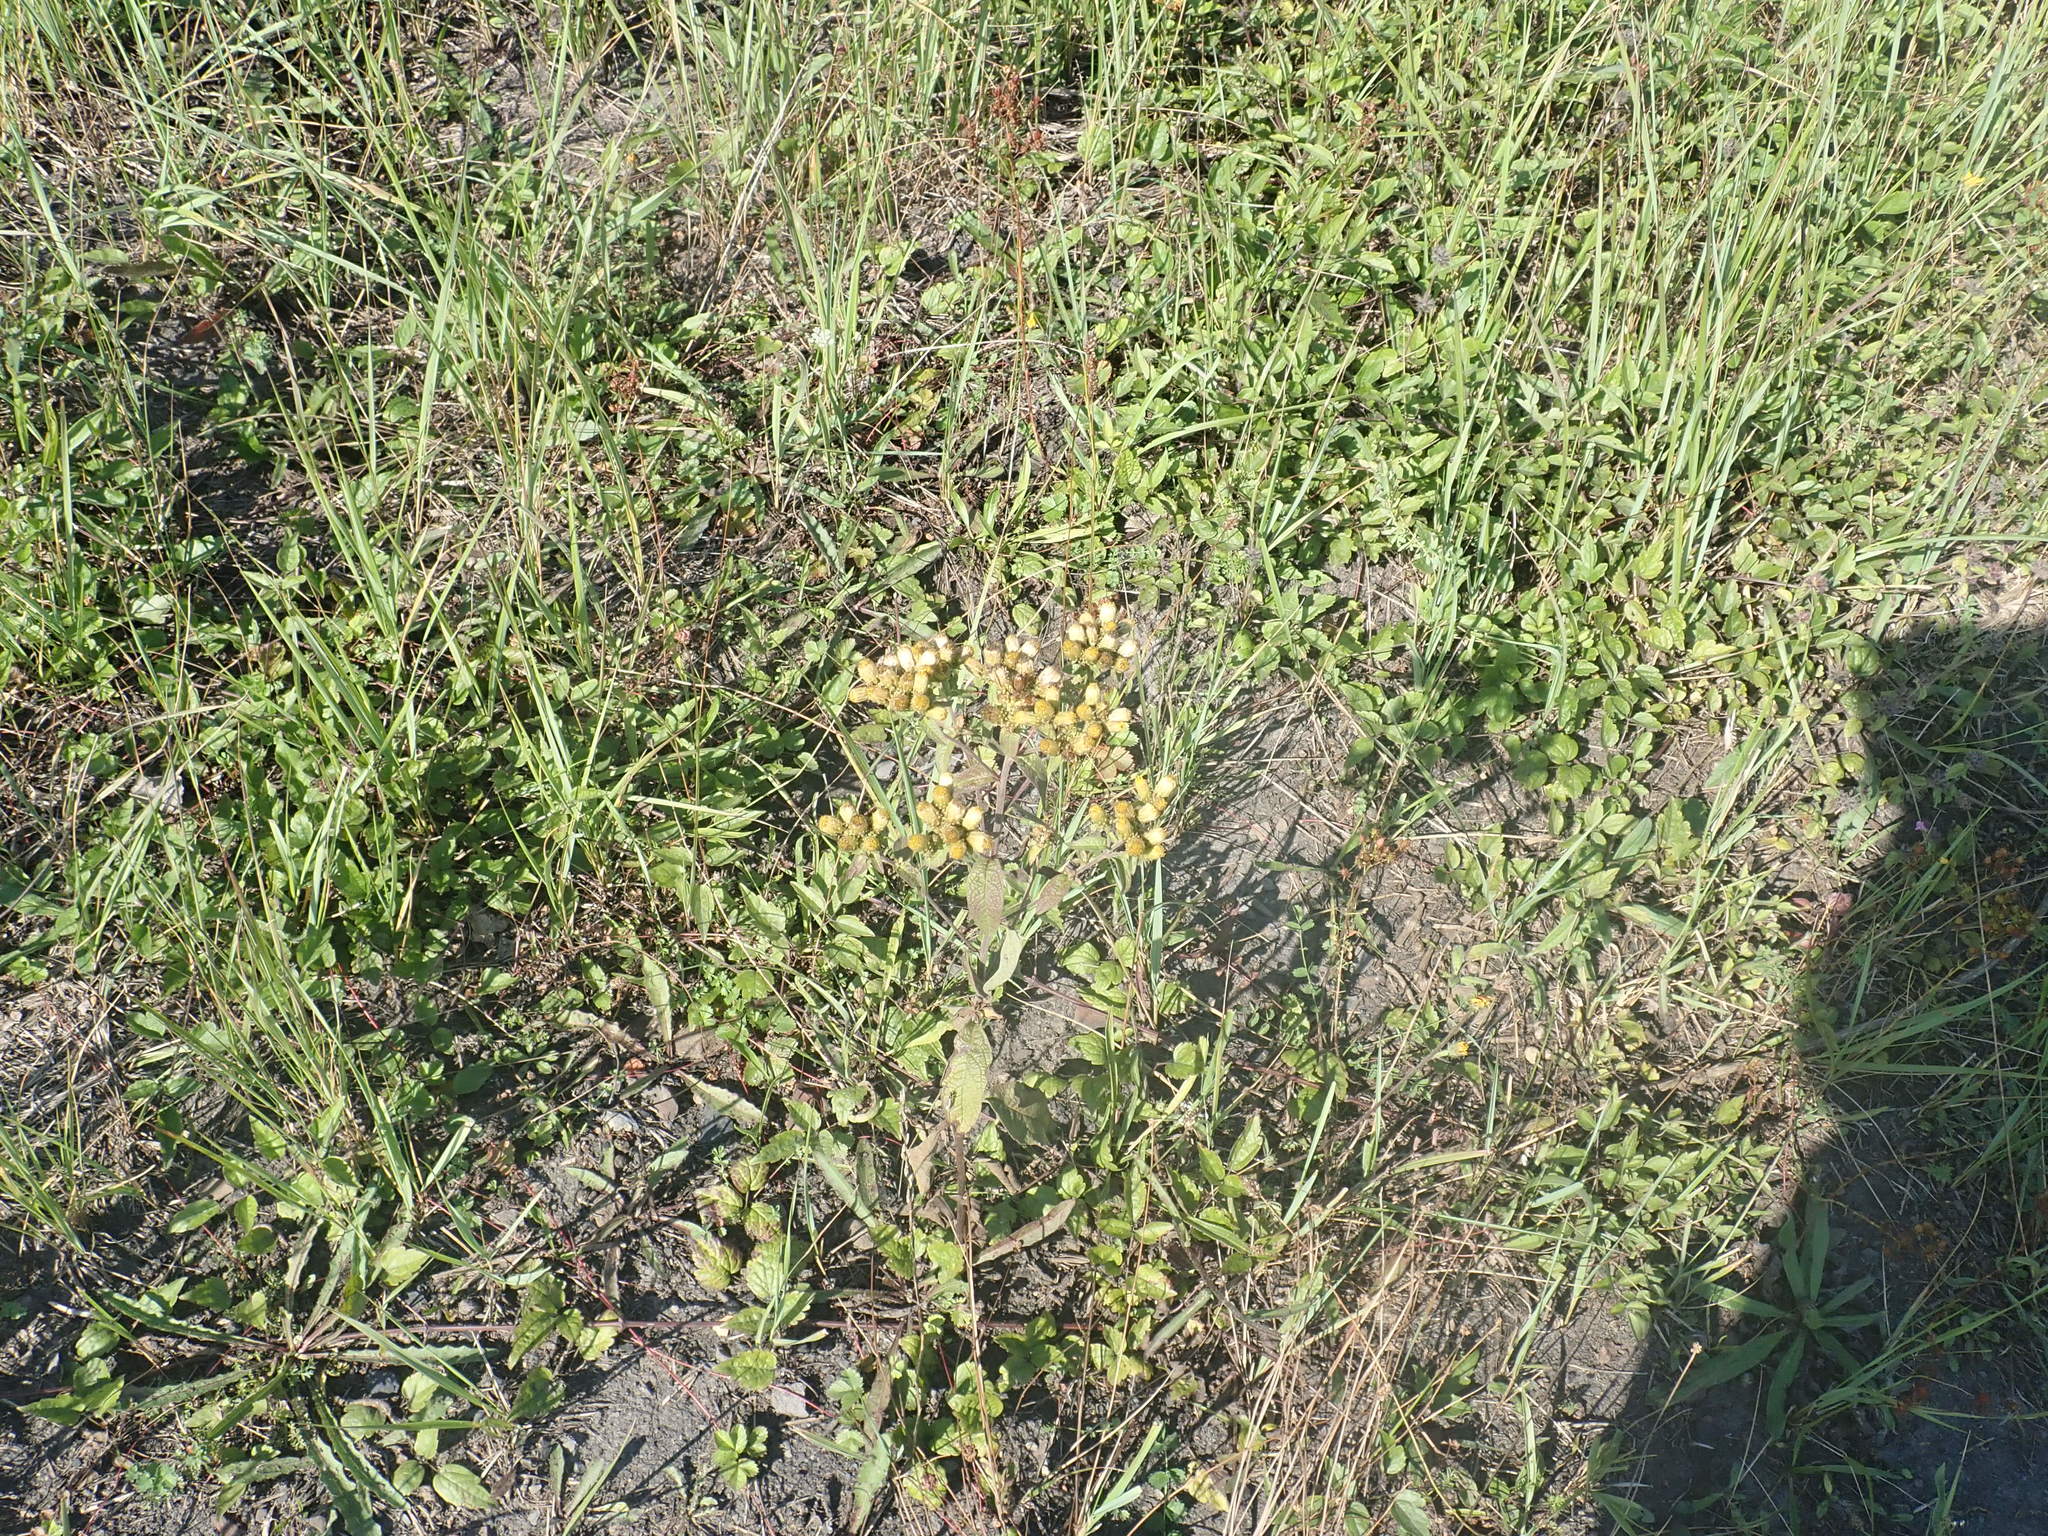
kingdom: Plantae
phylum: Tracheophyta
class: Magnoliopsida
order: Asterales
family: Asteraceae
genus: Pentanema
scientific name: Pentanema squarrosum
